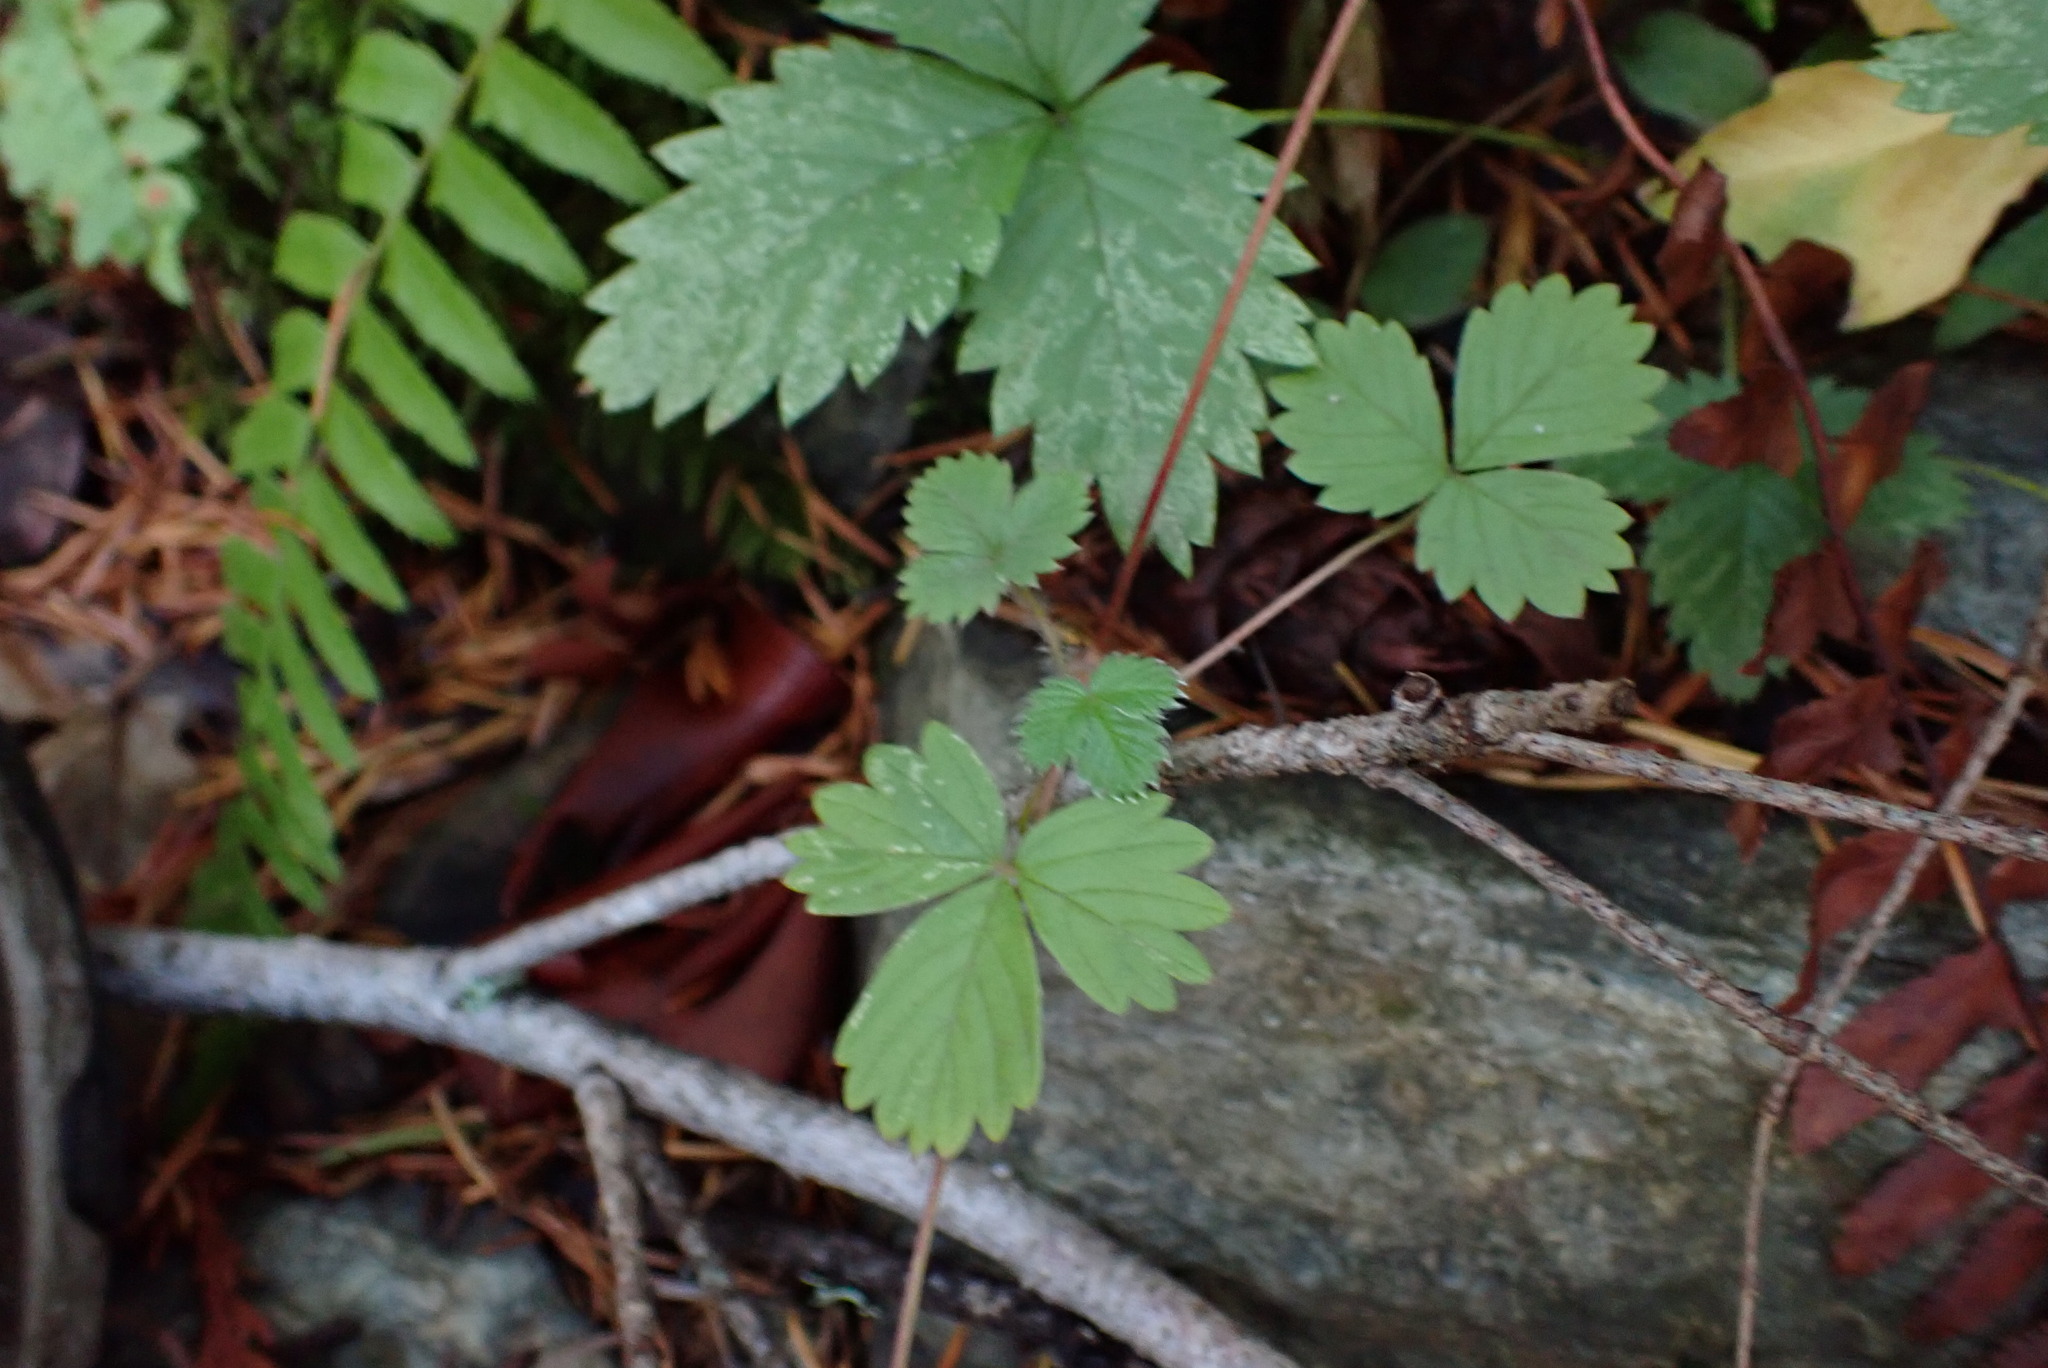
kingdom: Plantae
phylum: Tracheophyta
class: Magnoliopsida
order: Rosales
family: Rosaceae
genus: Fragaria
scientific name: Fragaria vesca
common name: Wild strawberry
